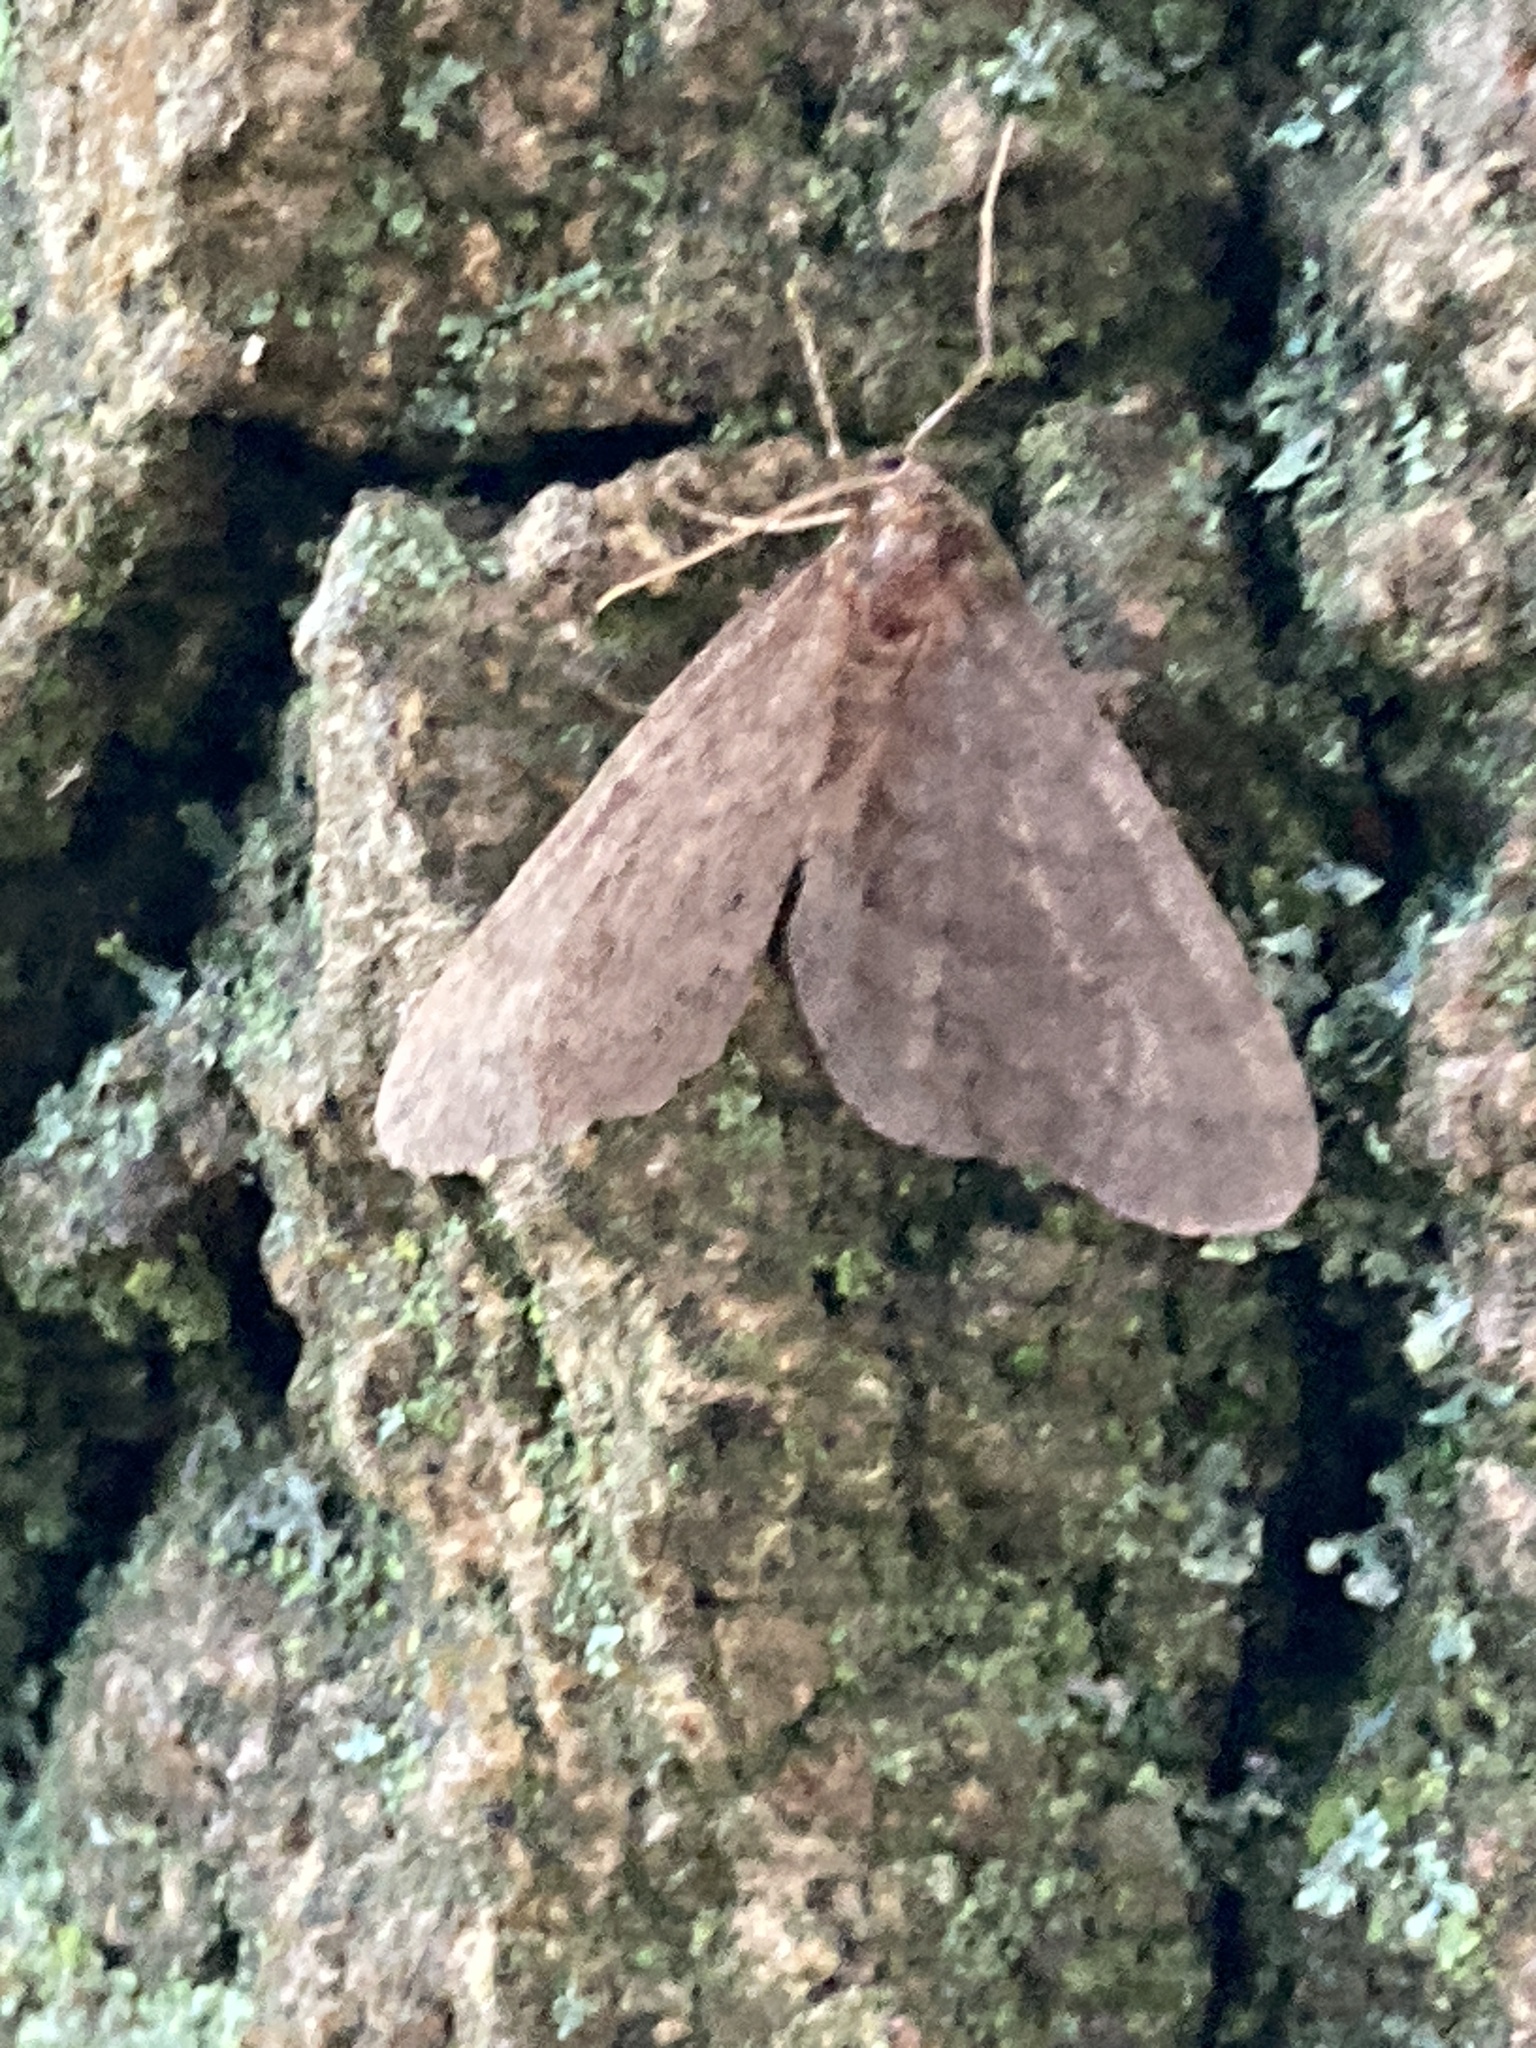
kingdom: Animalia
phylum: Arthropoda
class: Insecta
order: Lepidoptera
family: Geometridae
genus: Operophtera
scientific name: Operophtera brumata
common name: Winter moth
